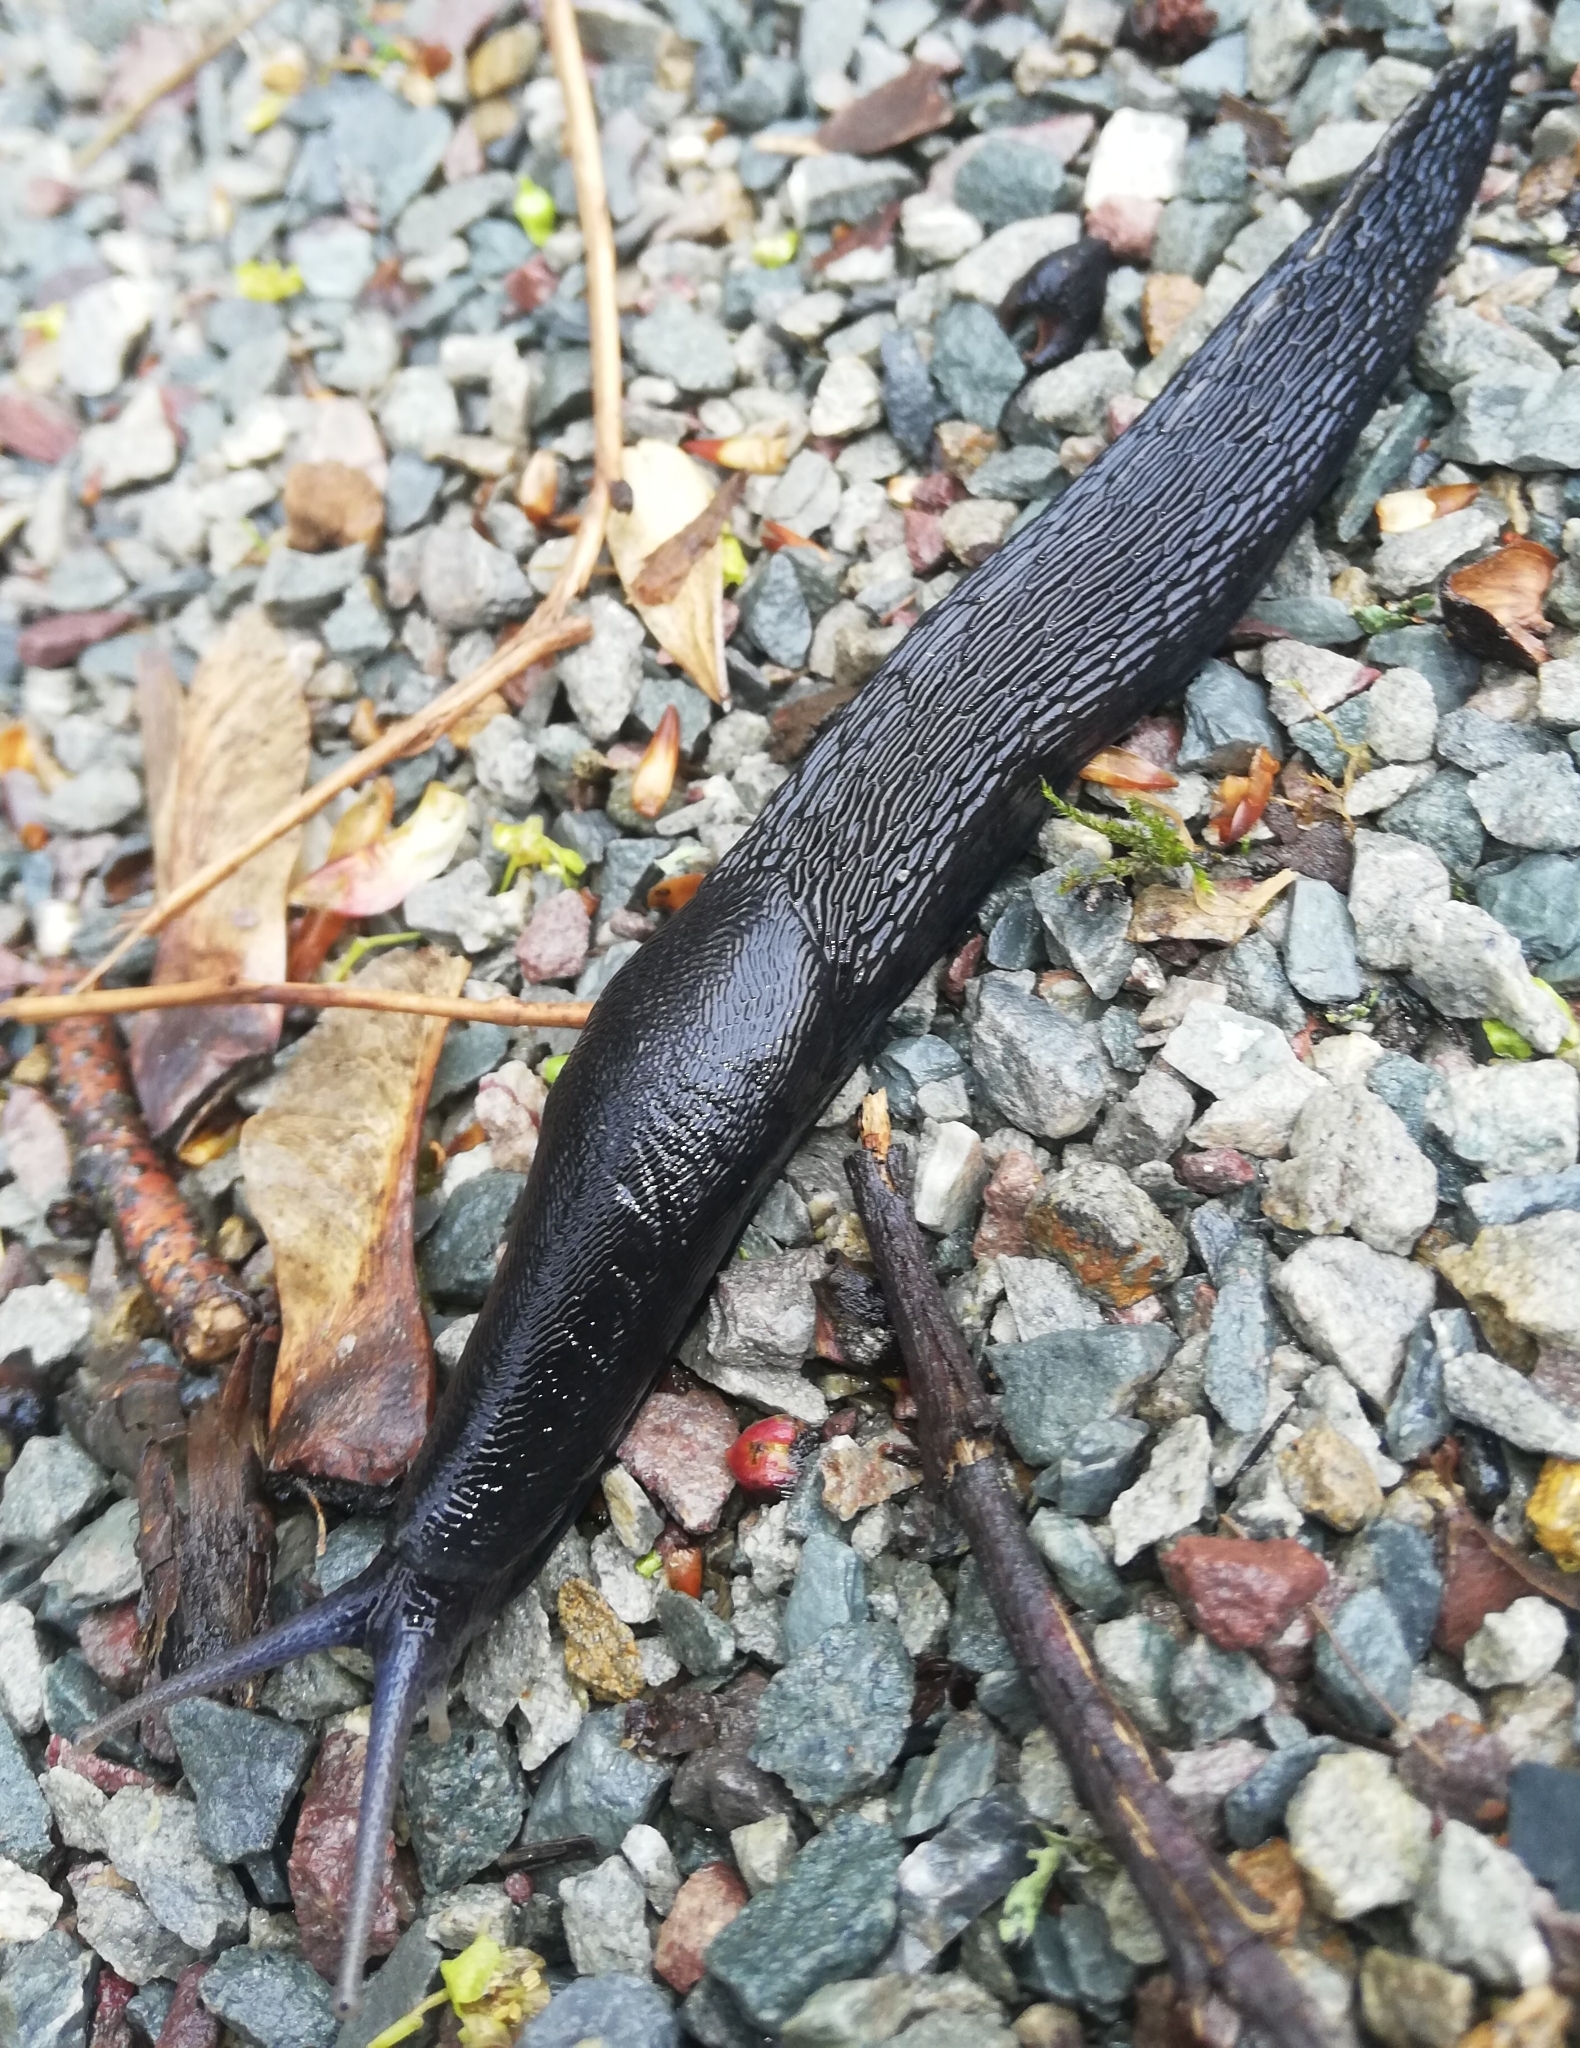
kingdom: Animalia
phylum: Mollusca
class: Gastropoda
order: Stylommatophora
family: Limacidae
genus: Limax
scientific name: Limax cinereoniger
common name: Ash-black slug
